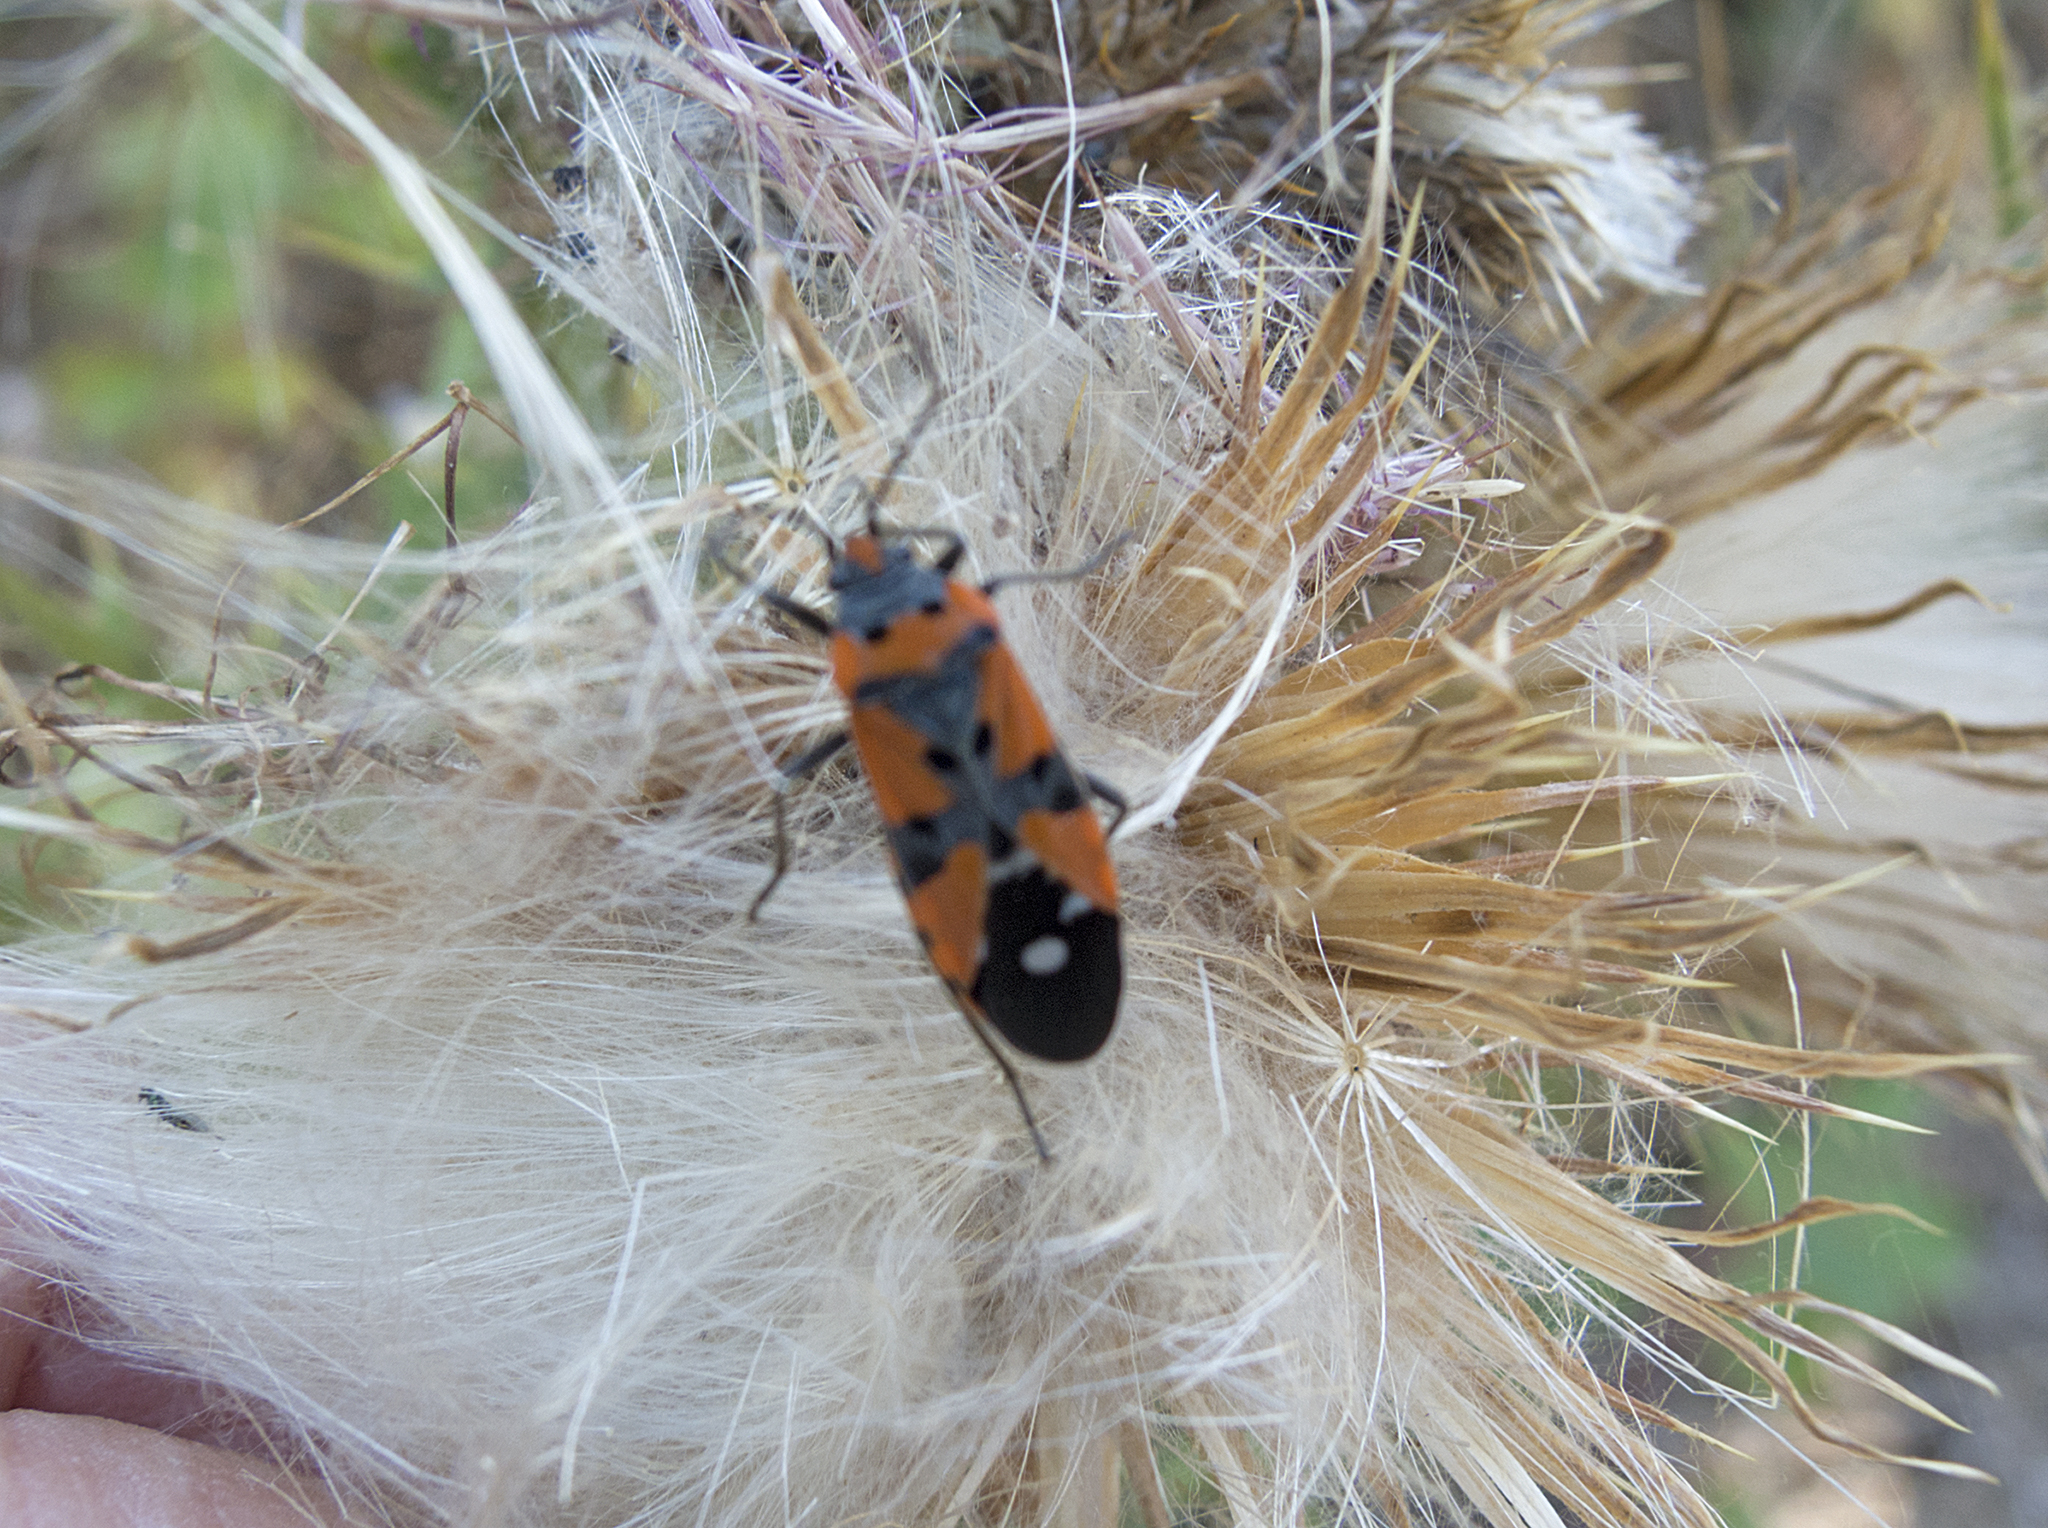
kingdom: Animalia
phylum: Arthropoda
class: Insecta
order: Hemiptera
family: Lygaeidae
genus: Lygaeus
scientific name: Lygaeus equestris
